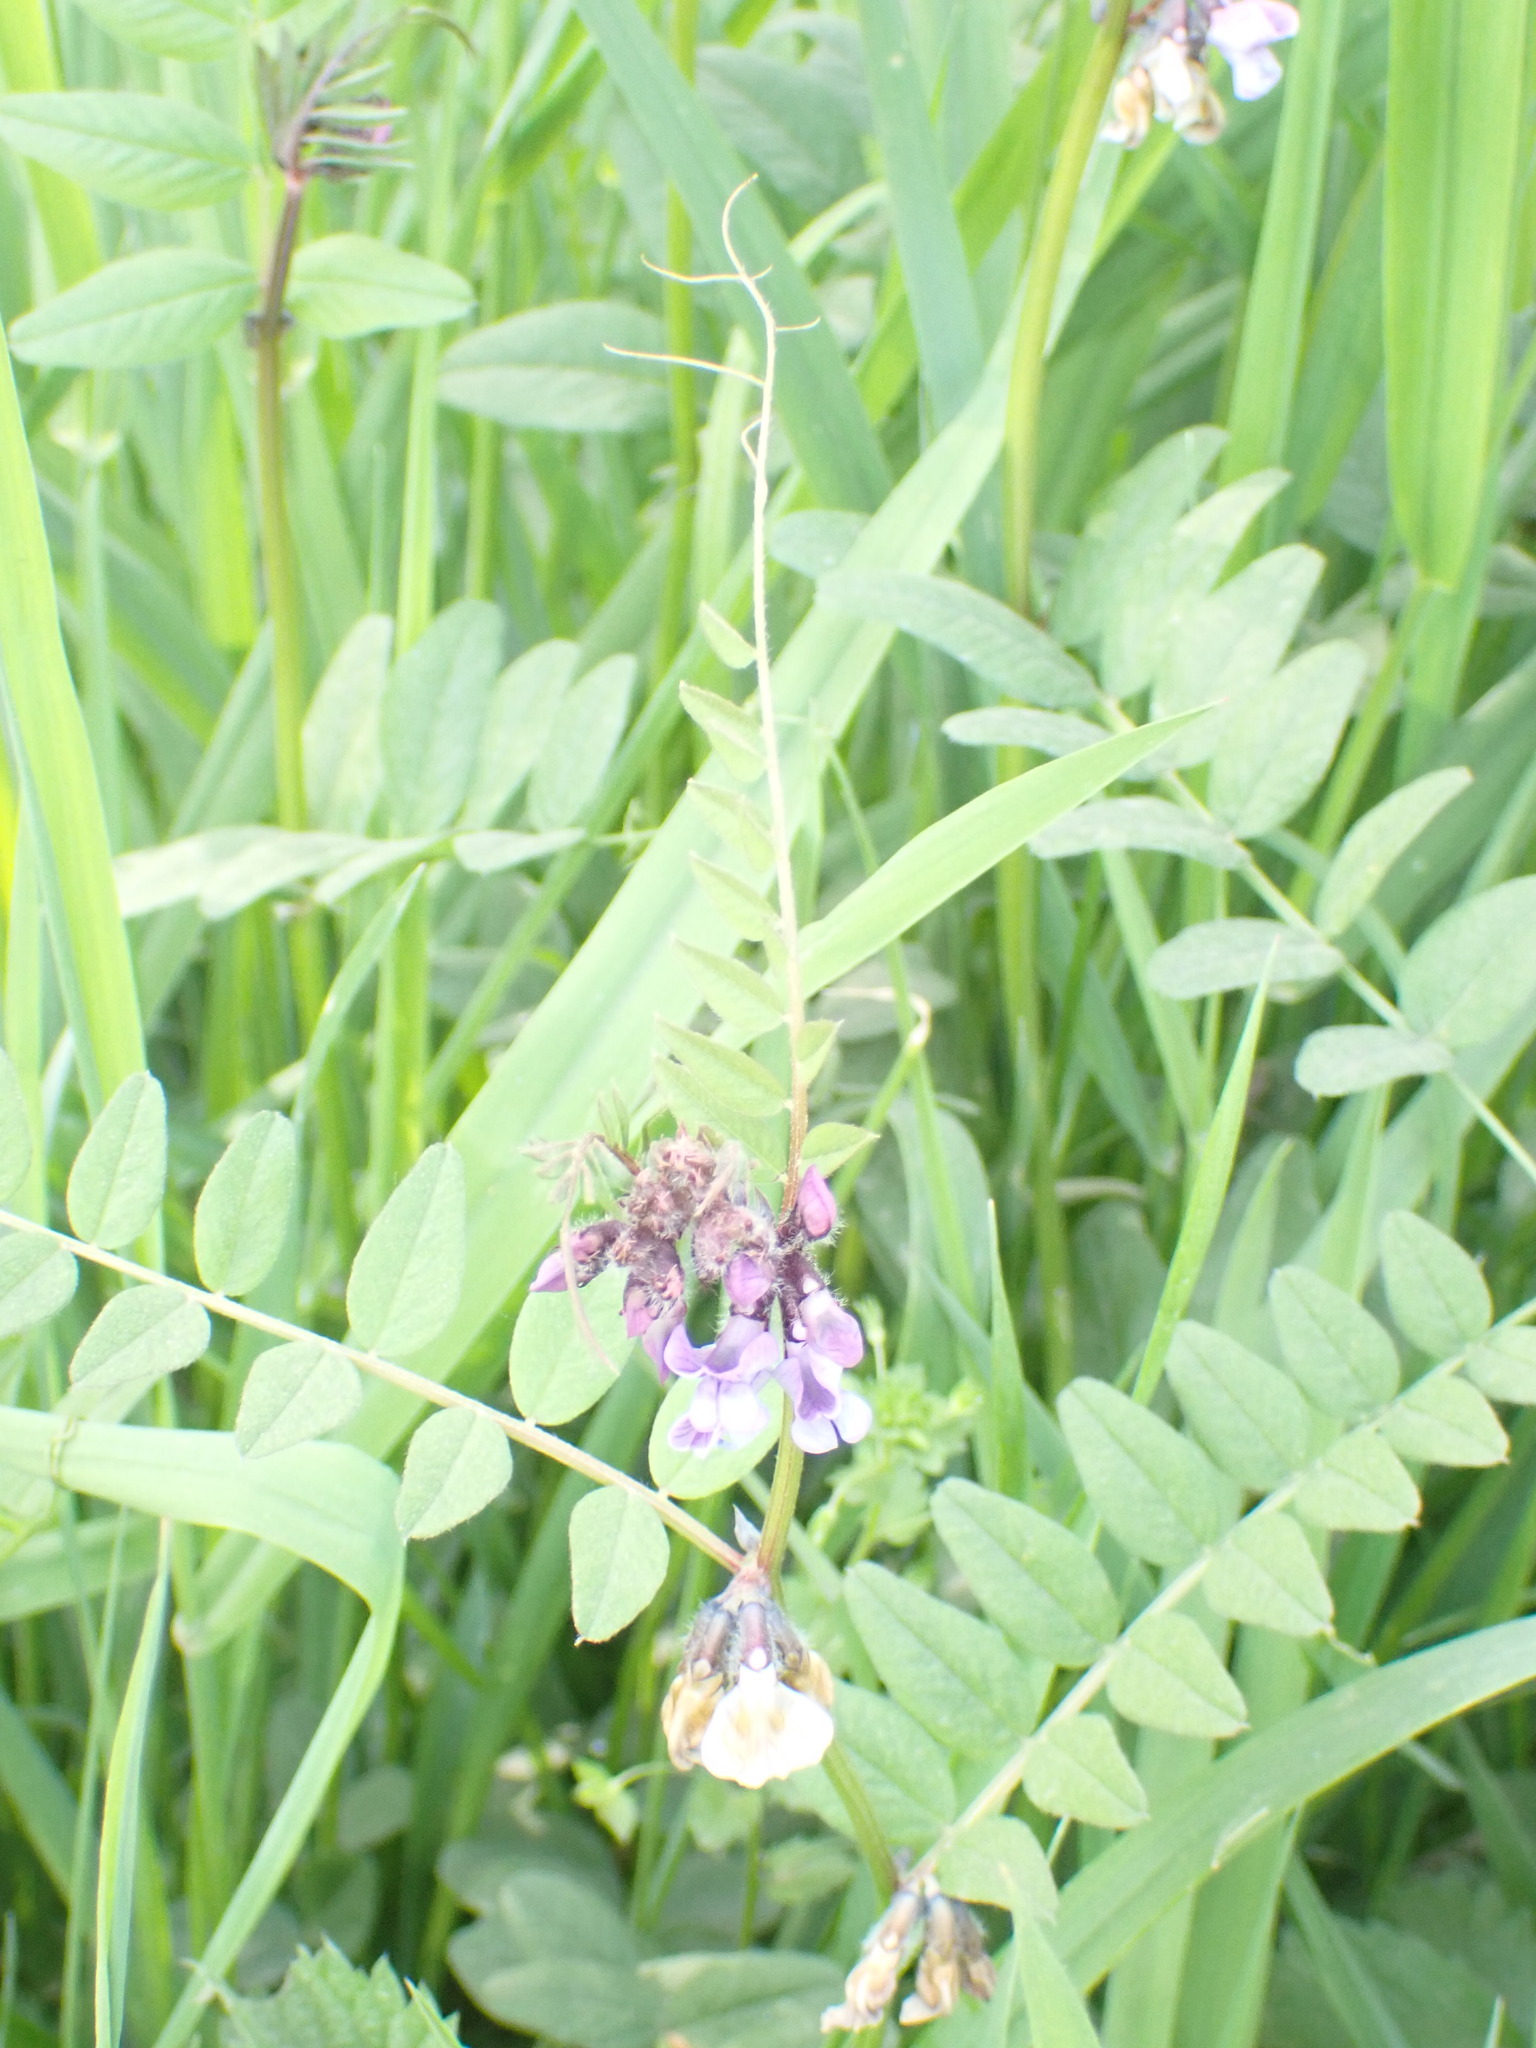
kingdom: Plantae
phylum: Tracheophyta
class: Magnoliopsida
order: Fabales
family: Fabaceae
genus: Vicia
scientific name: Vicia sepium
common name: Bush vetch
